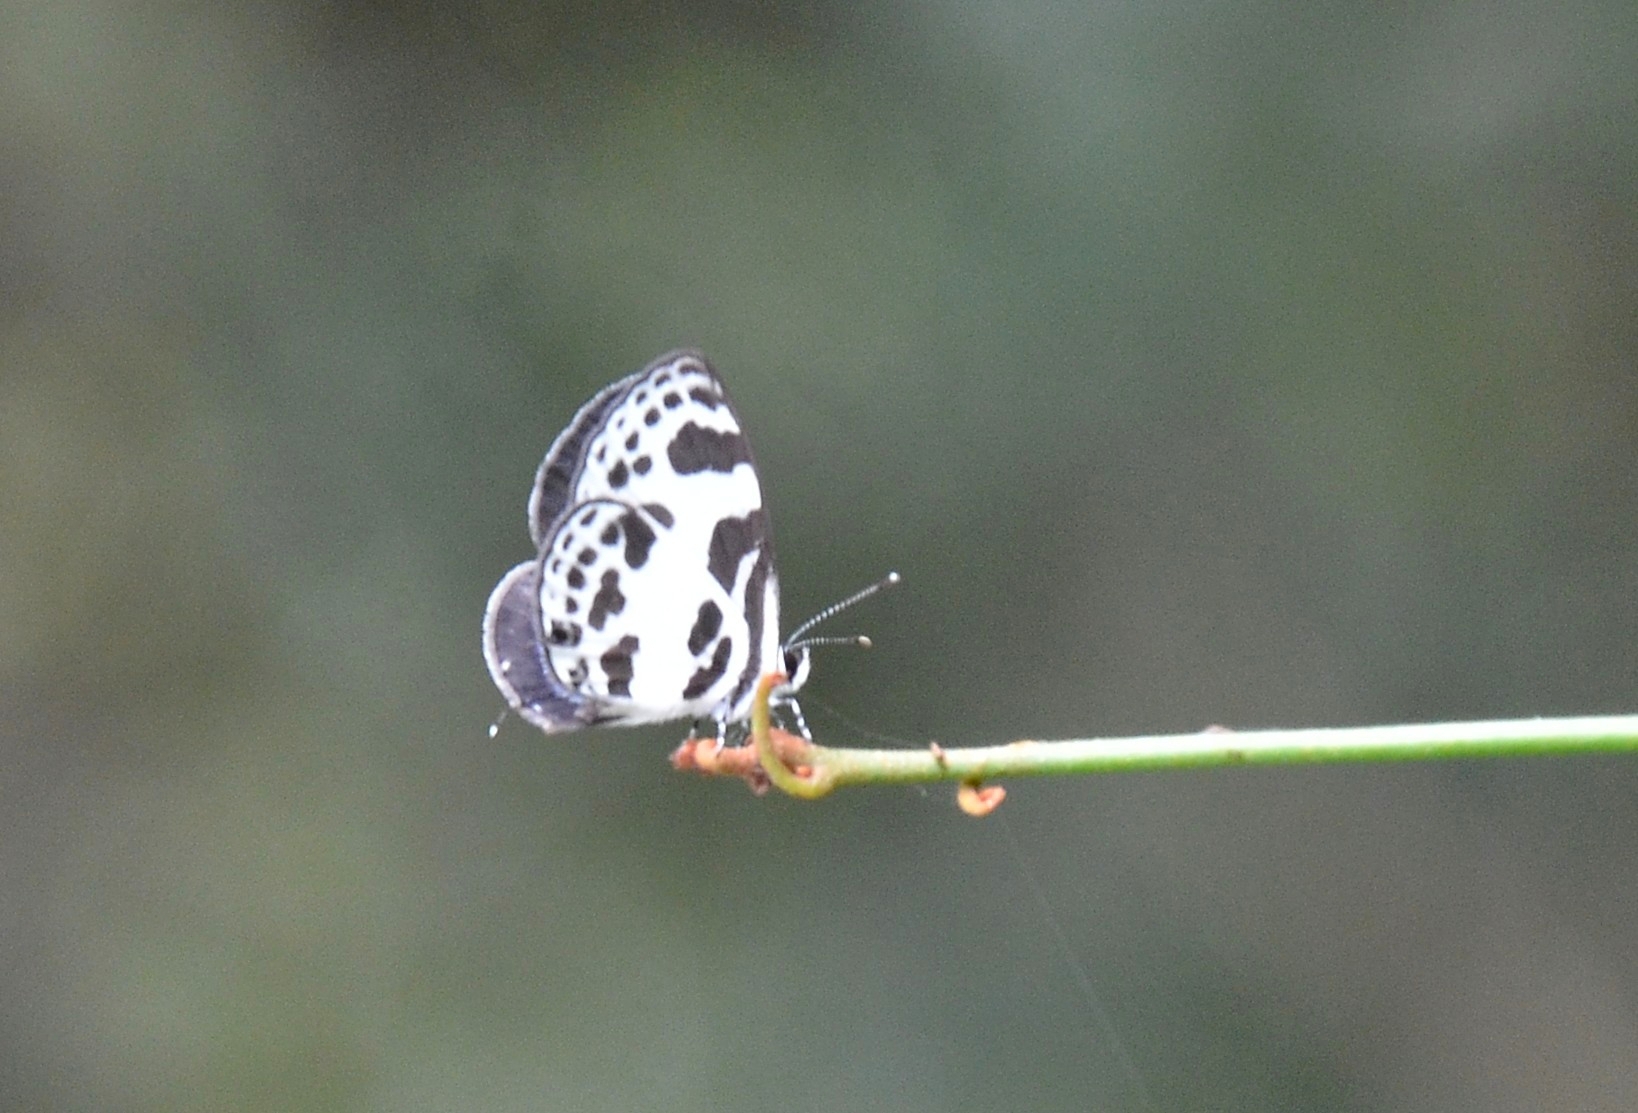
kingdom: Animalia
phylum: Arthropoda
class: Insecta
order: Lepidoptera
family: Lycaenidae
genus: Discolampa
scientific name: Discolampa ethion
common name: Banded blue pierrot
